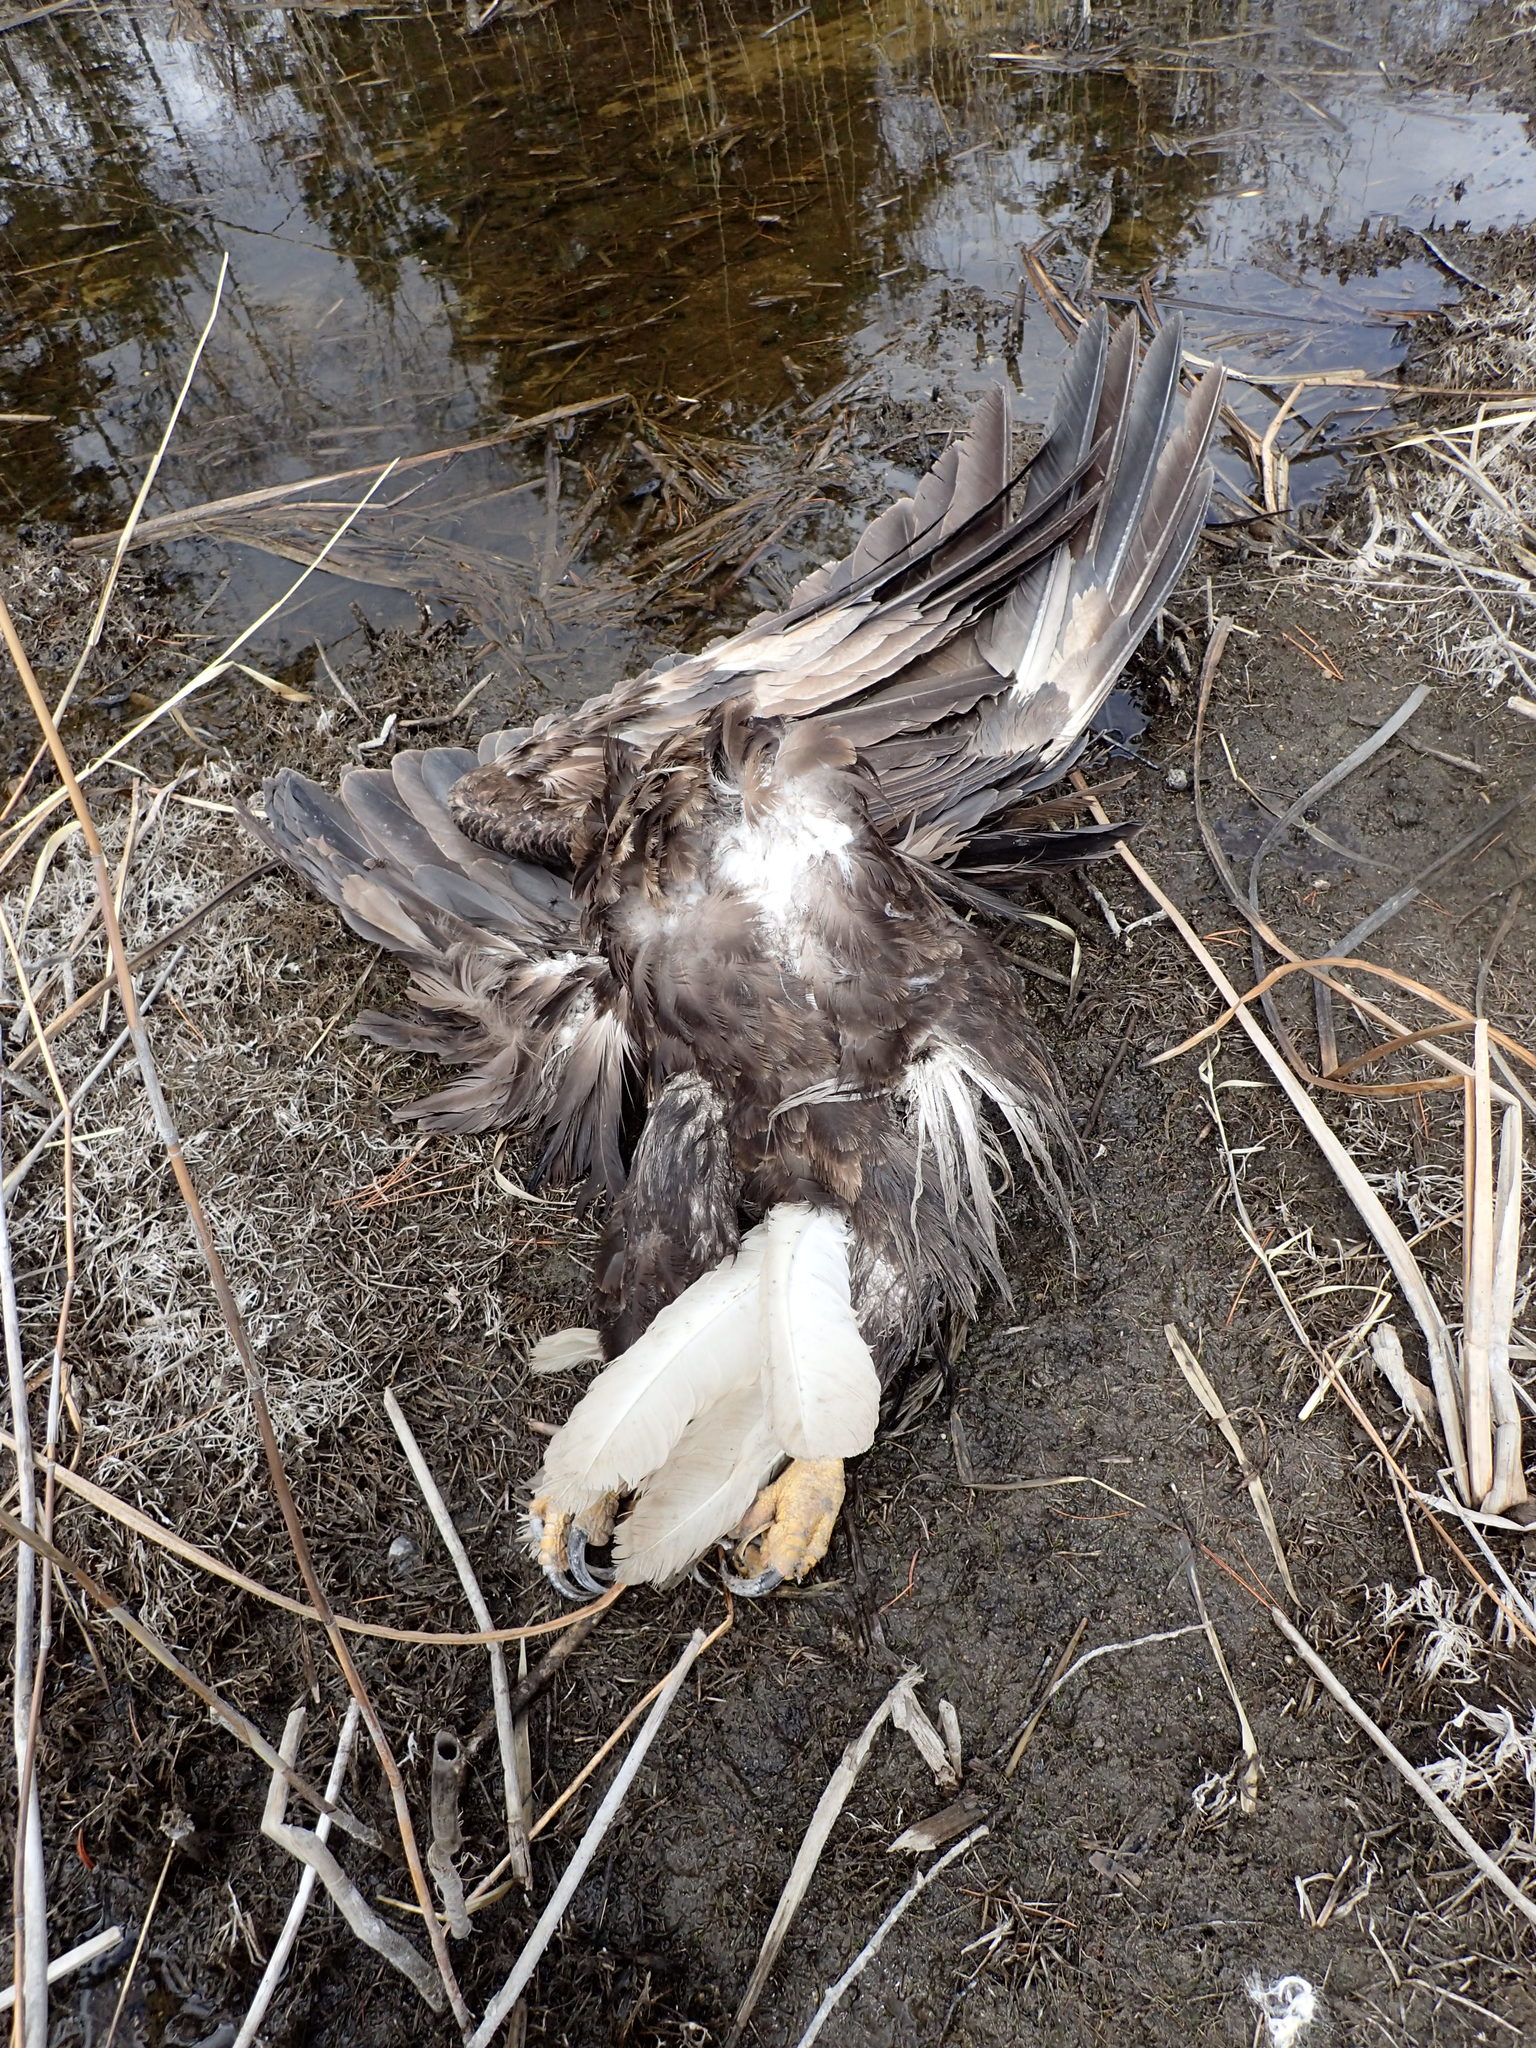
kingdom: Animalia
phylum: Chordata
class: Aves
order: Accipitriformes
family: Accipitridae
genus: Haliaeetus
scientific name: Haliaeetus leucocephalus
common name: Bald eagle
